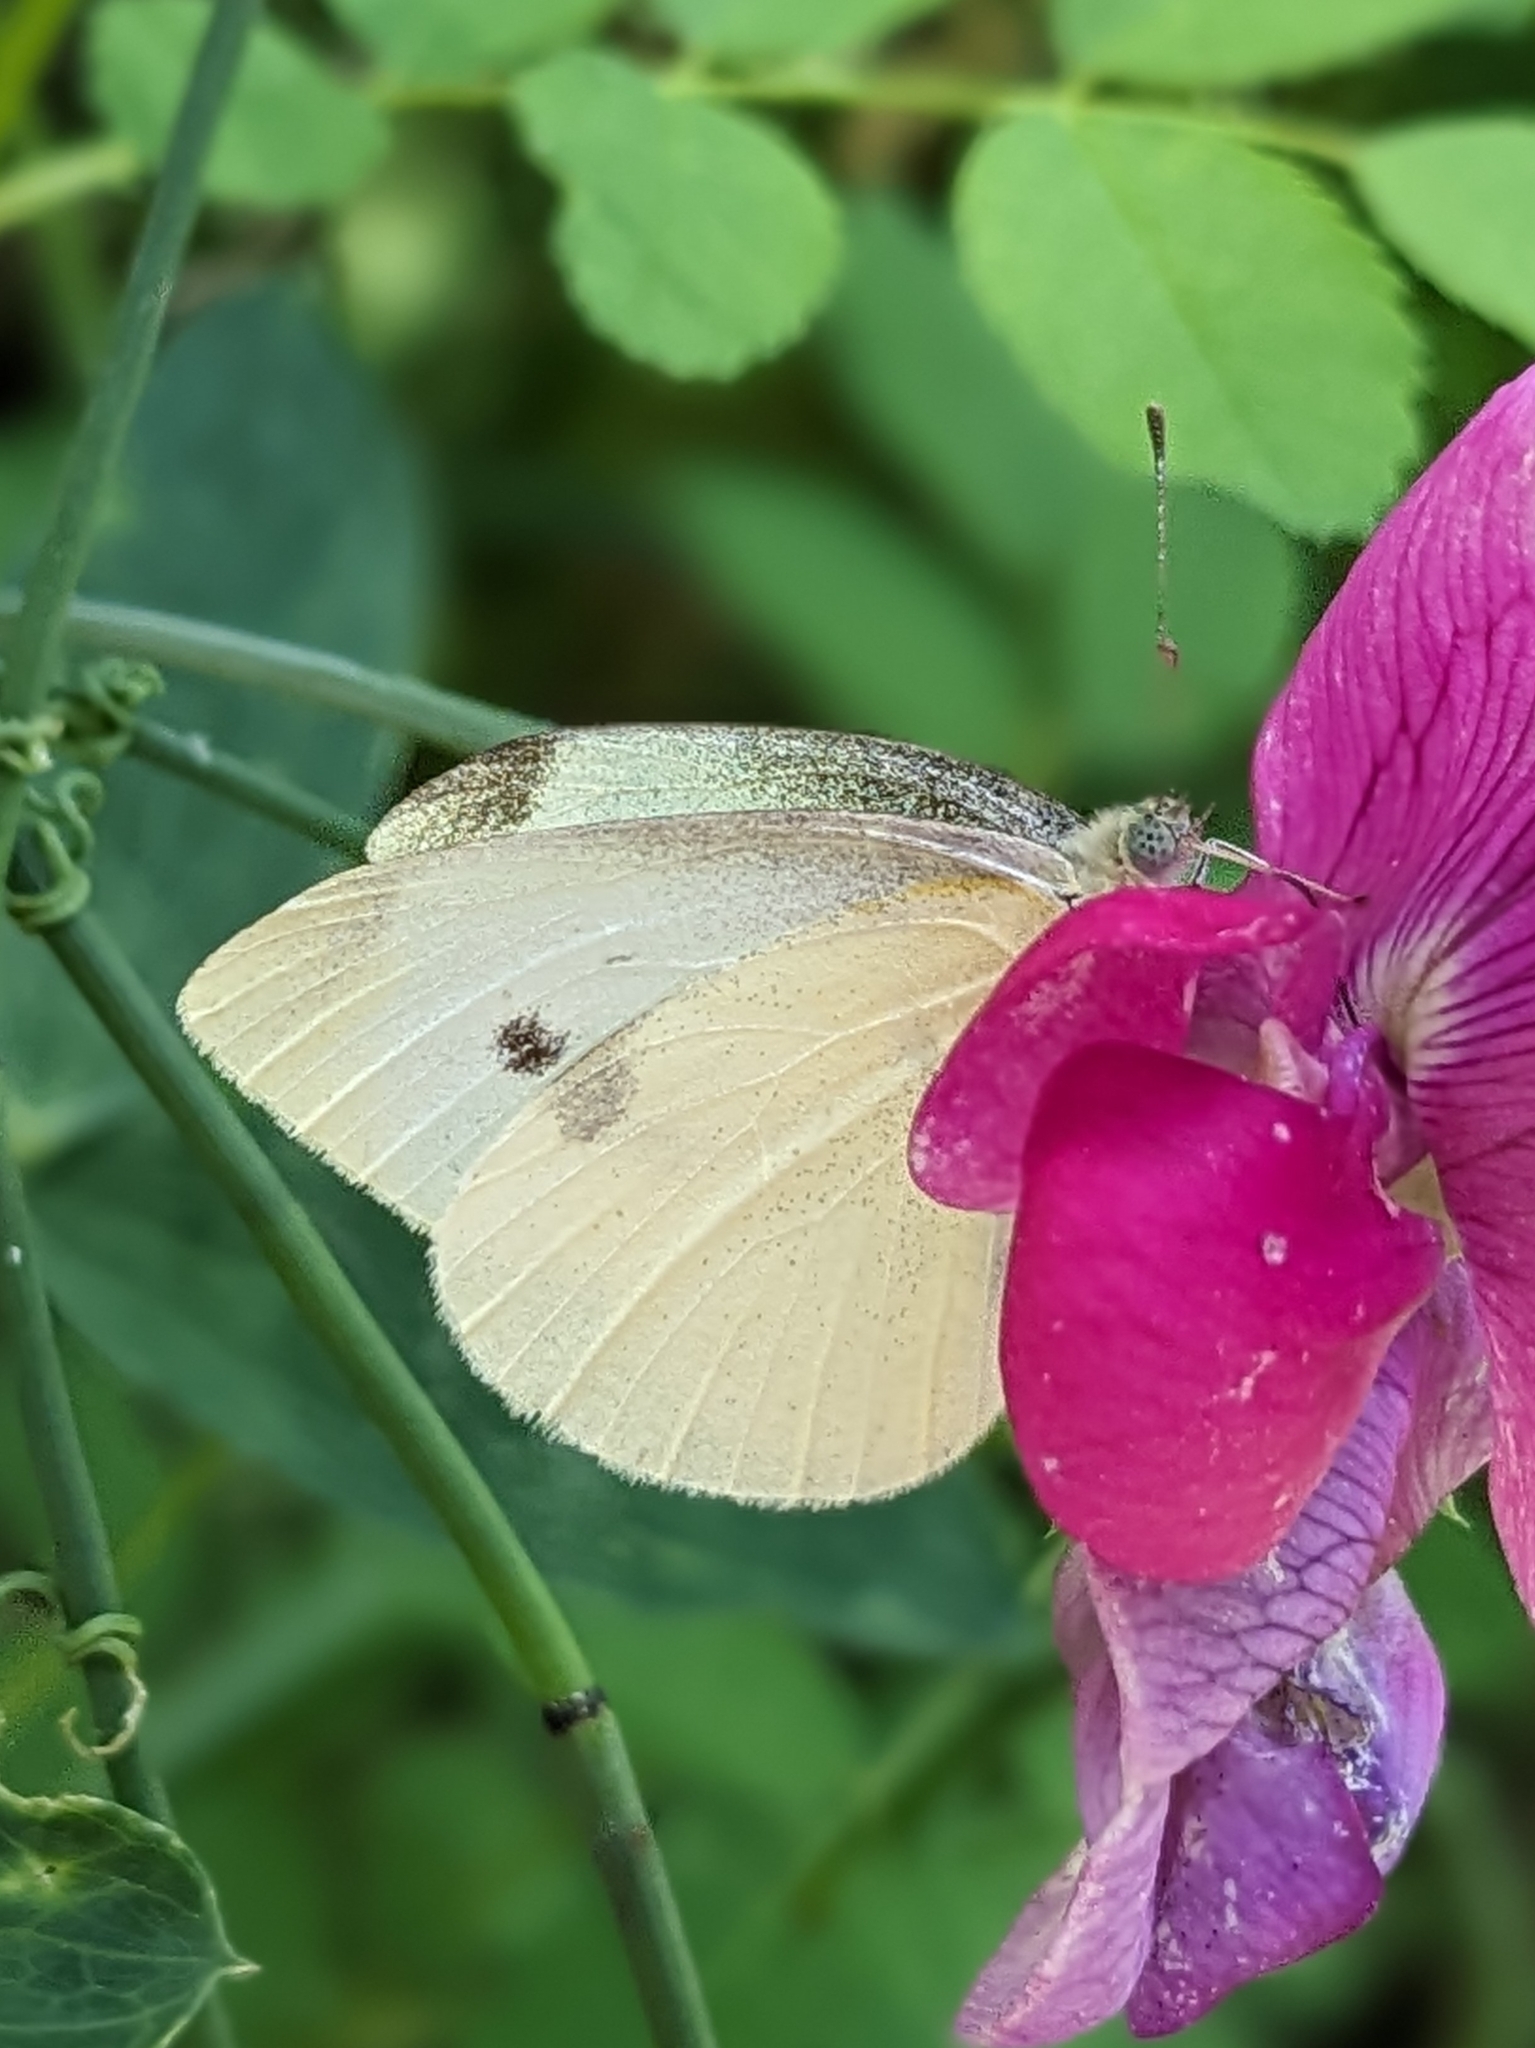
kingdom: Animalia
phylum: Arthropoda
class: Insecta
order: Lepidoptera
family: Pieridae
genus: Pieris
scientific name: Pieris rapae
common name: Small white
